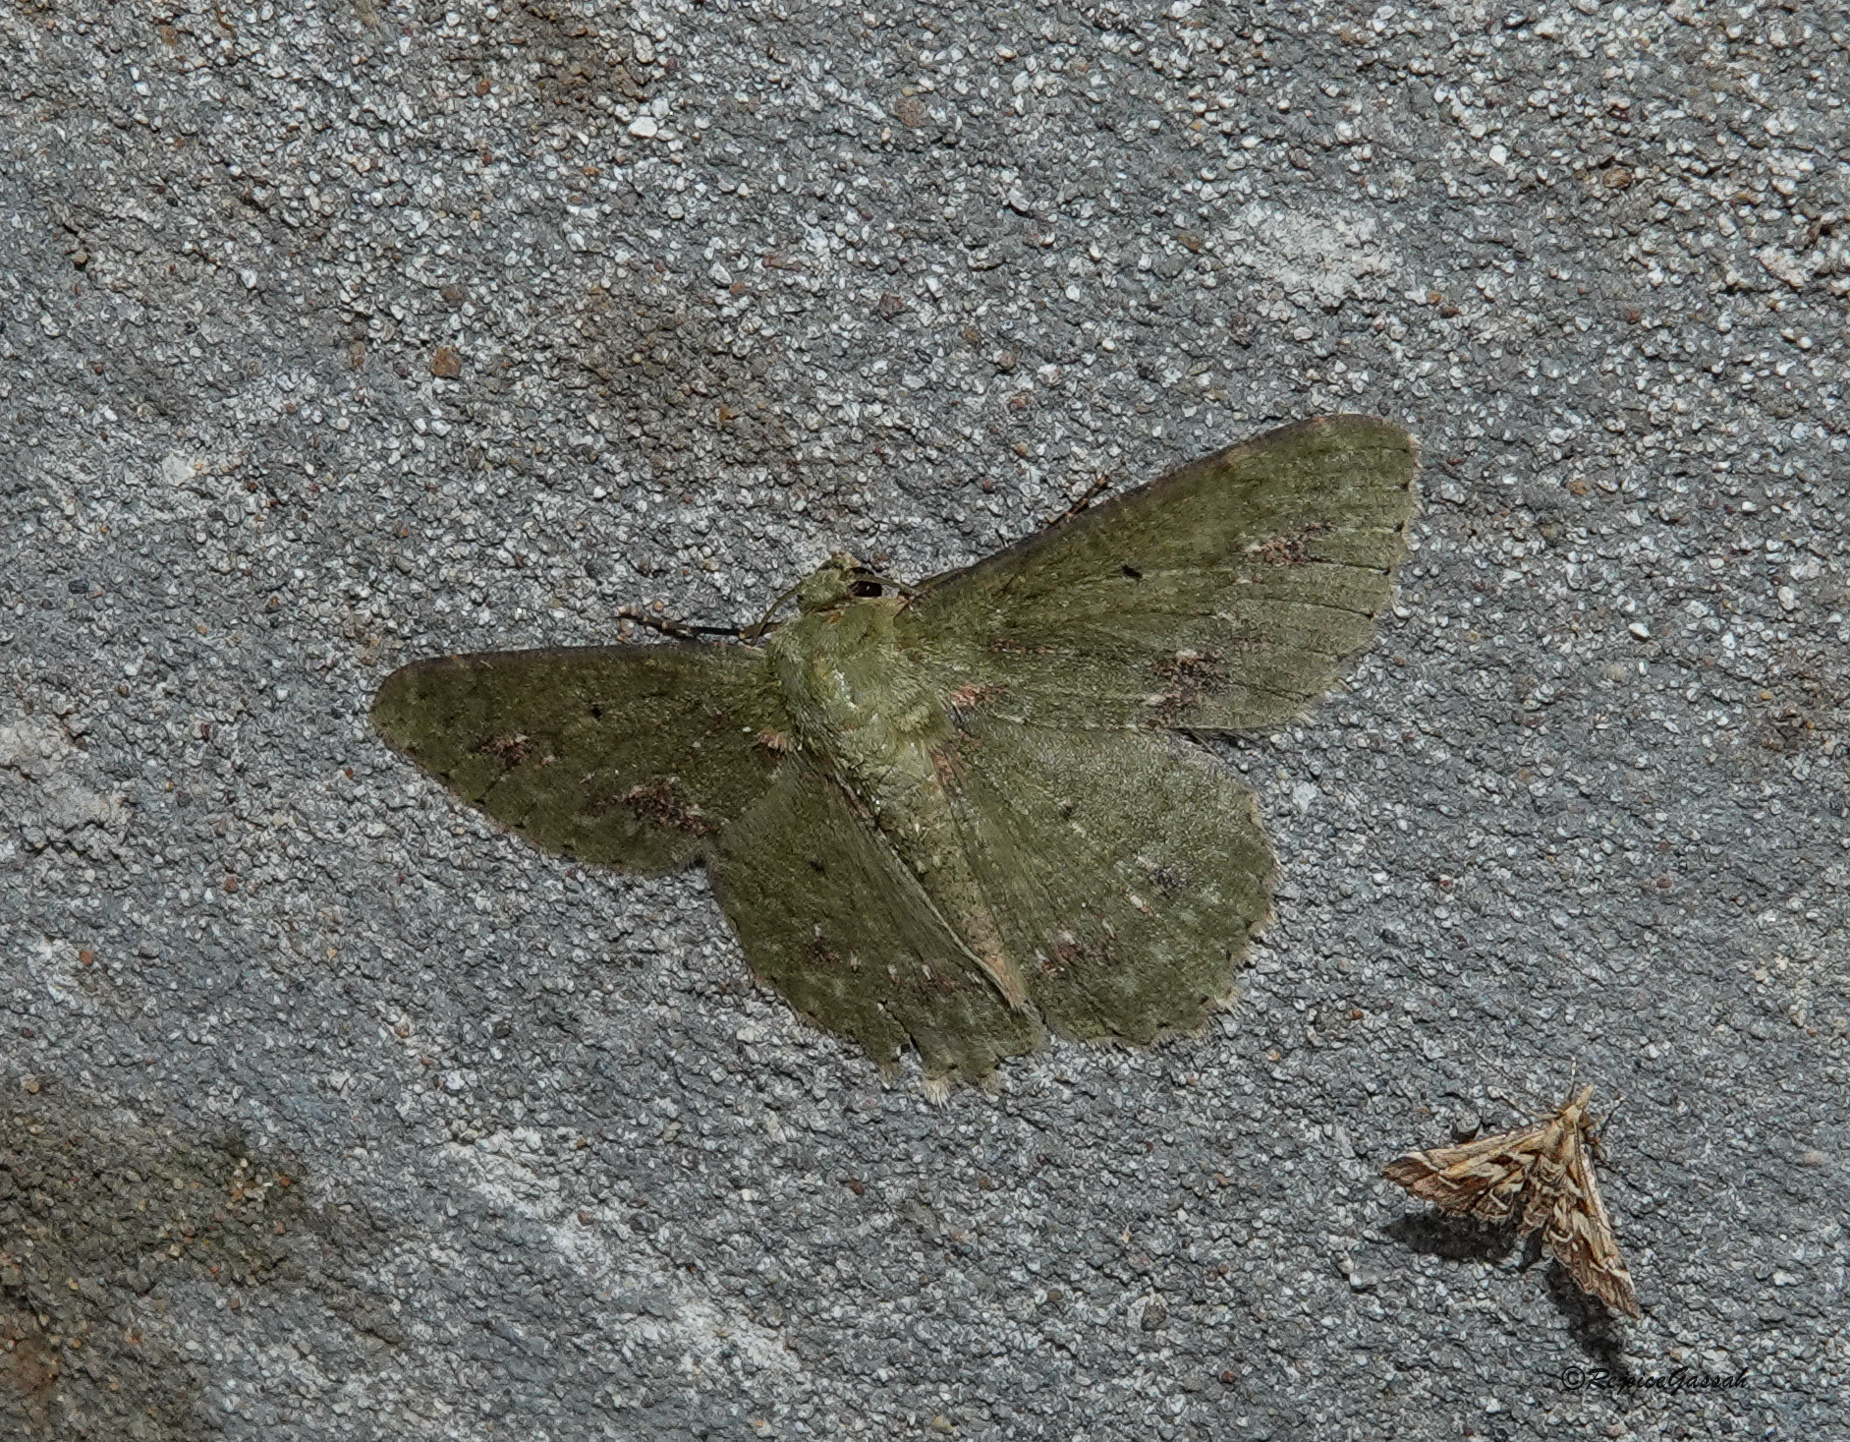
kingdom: Animalia
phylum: Arthropoda
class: Insecta
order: Lepidoptera
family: Geometridae
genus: Herochroma
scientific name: Herochroma cristata
